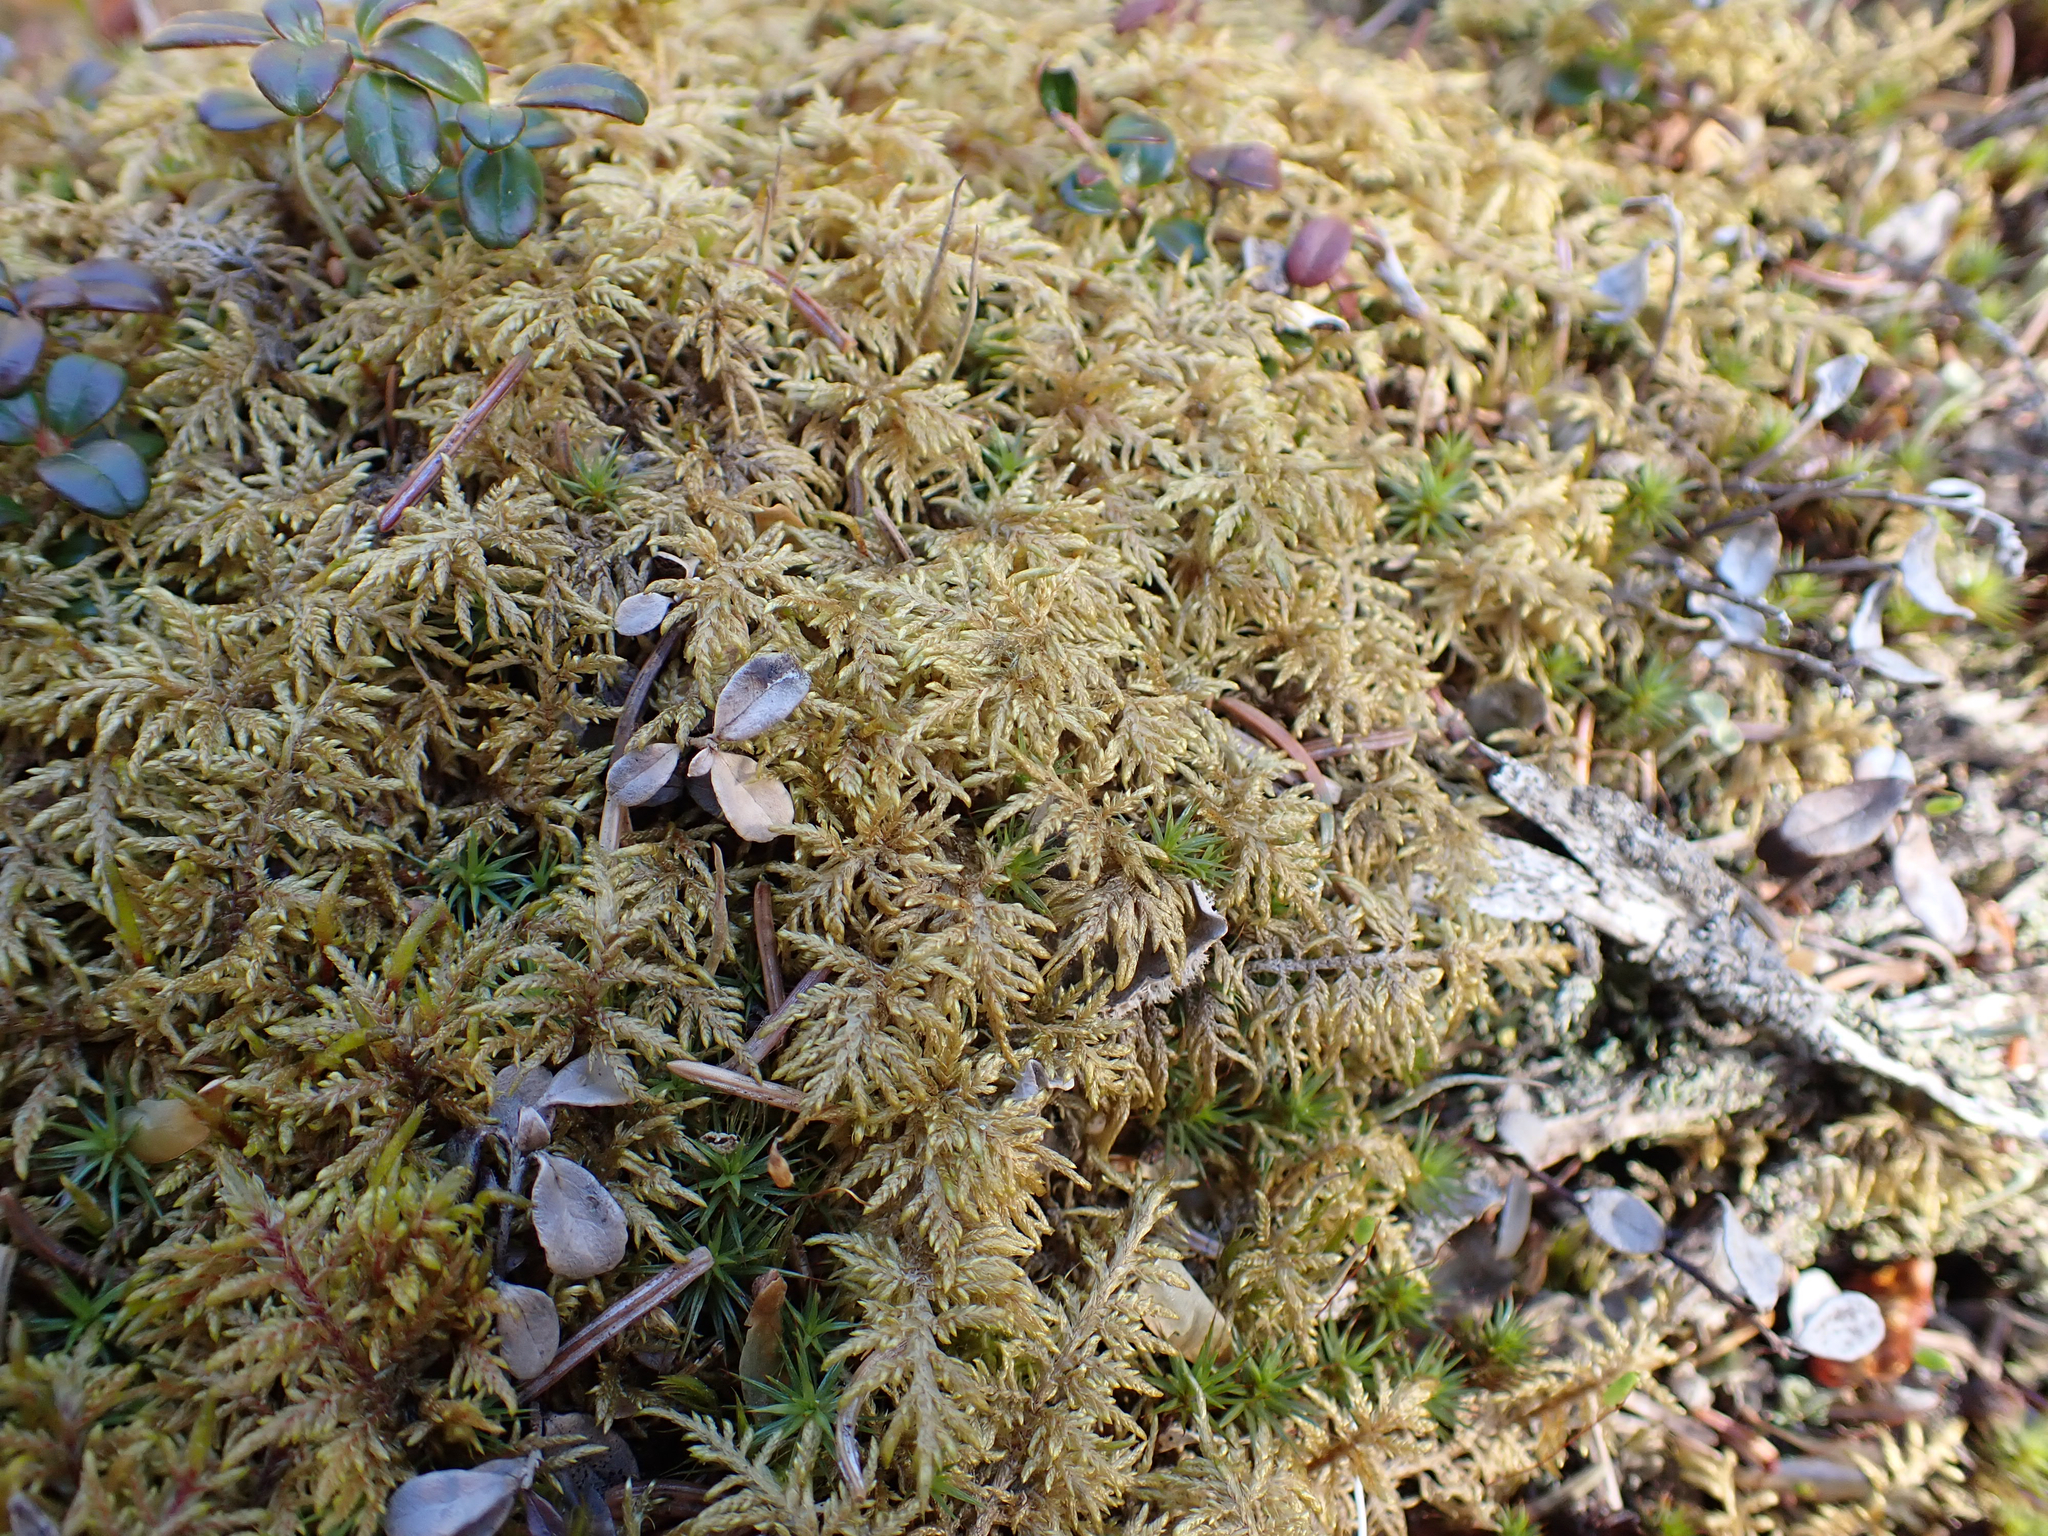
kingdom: Plantae
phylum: Bryophyta
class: Bryopsida
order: Hypnales
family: Hylocomiaceae
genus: Hylocomium
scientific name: Hylocomium splendens
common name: Stairstep moss
